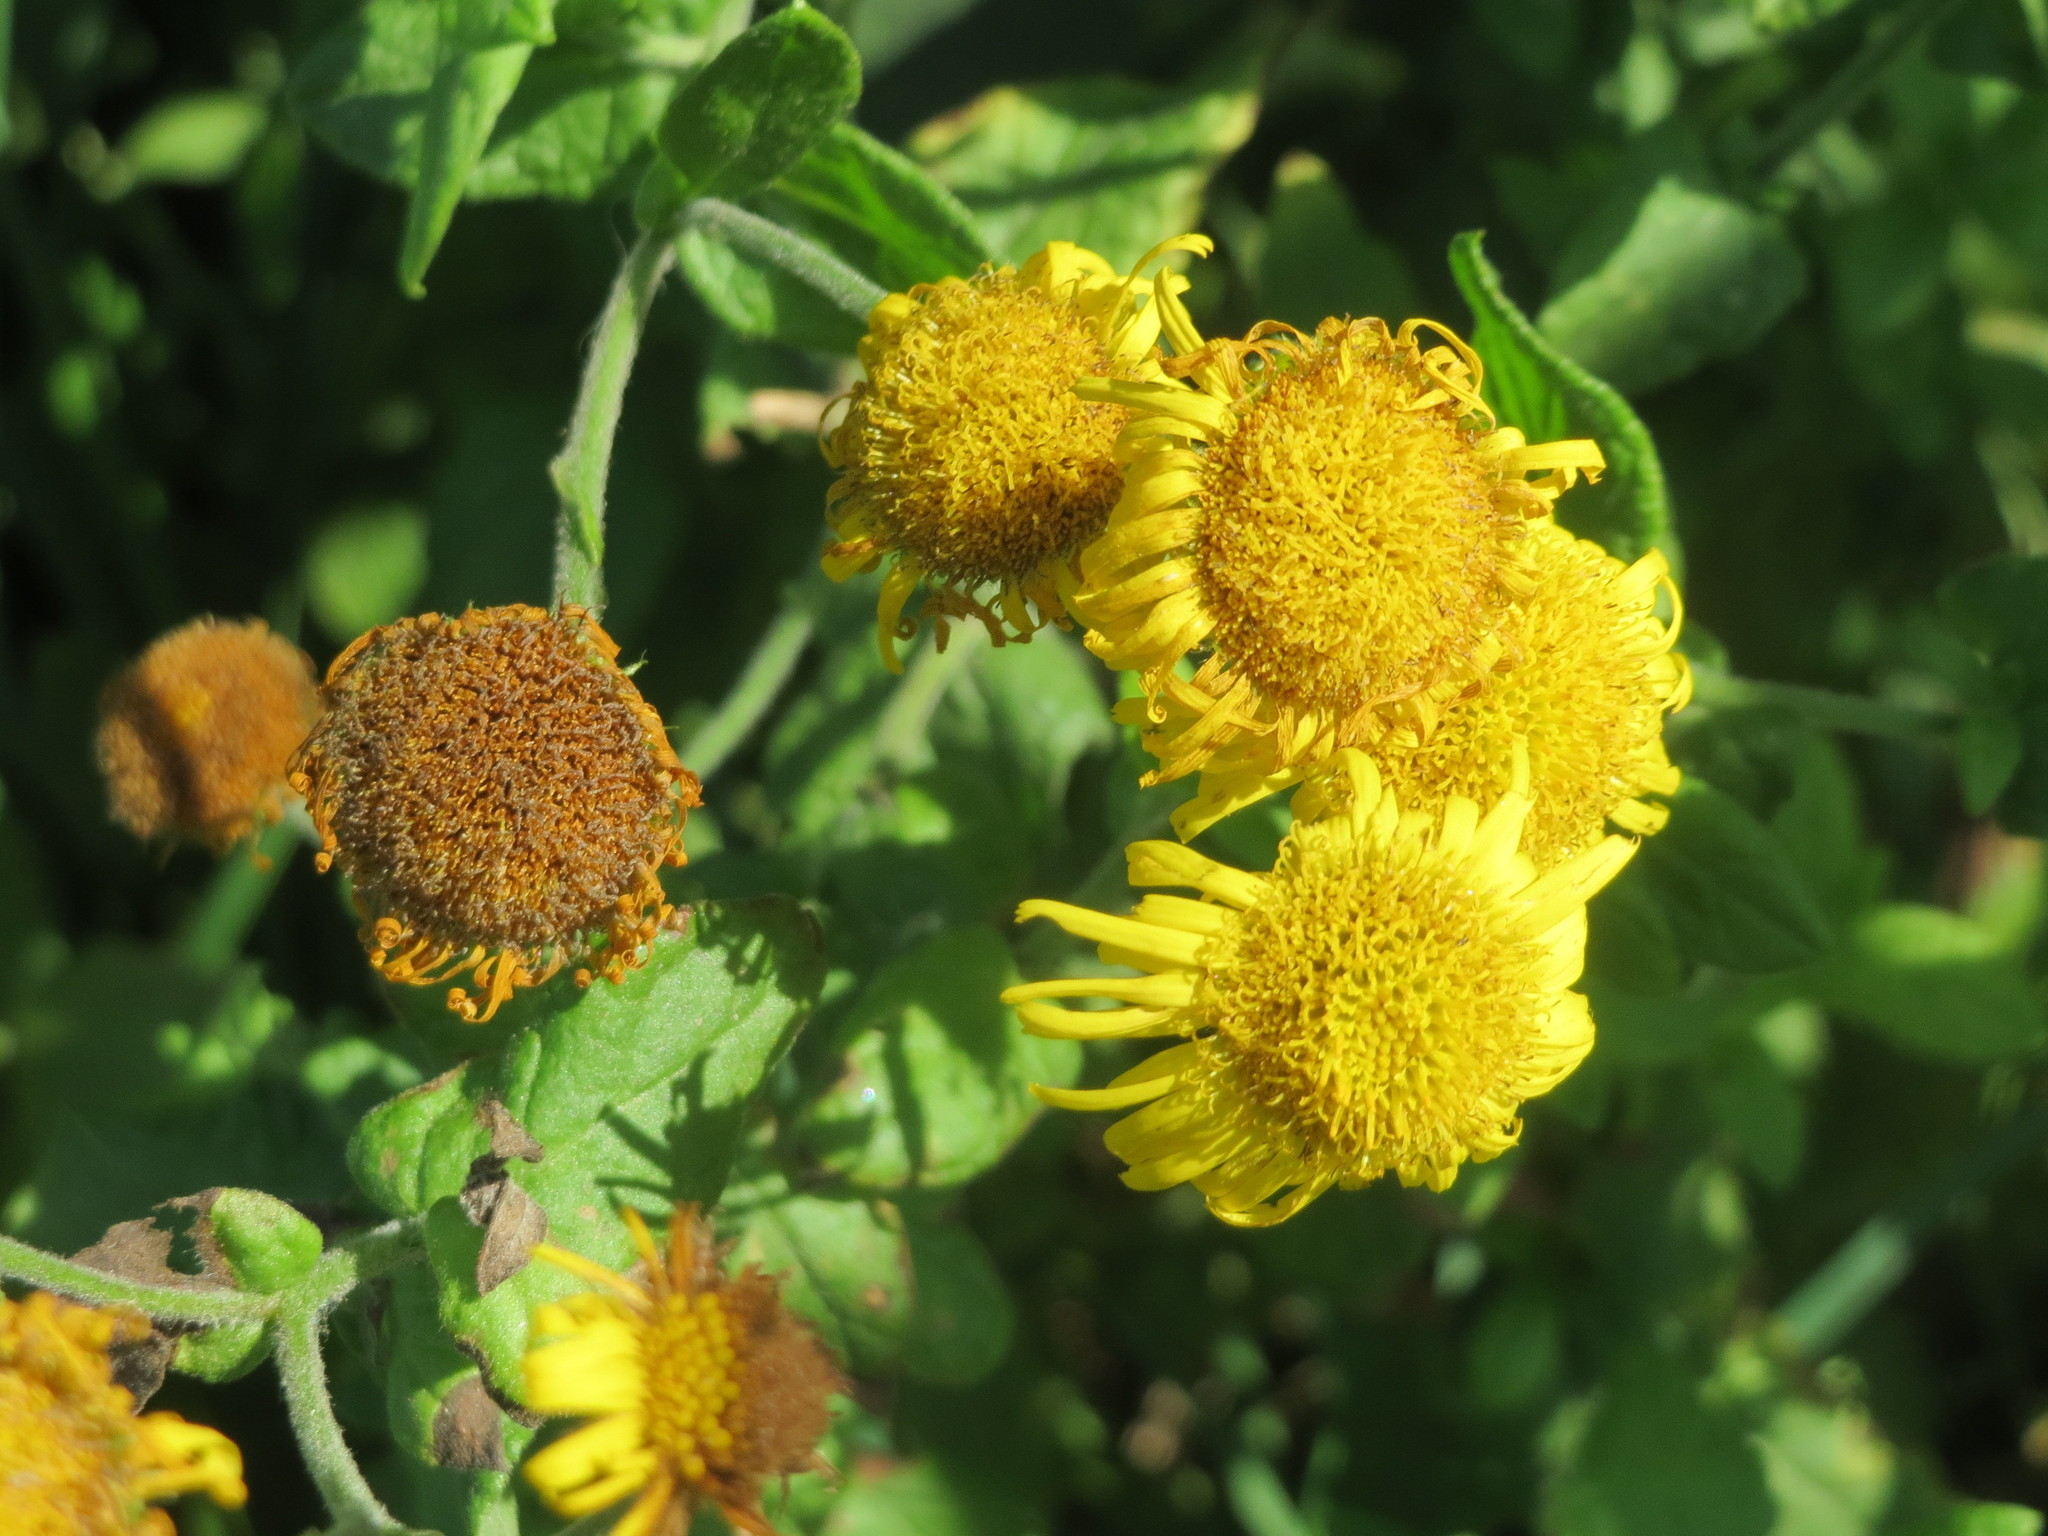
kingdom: Plantae
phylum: Tracheophyta
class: Magnoliopsida
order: Asterales
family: Asteraceae
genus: Pulicaria
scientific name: Pulicaria dysenterica
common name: Common fleabane
